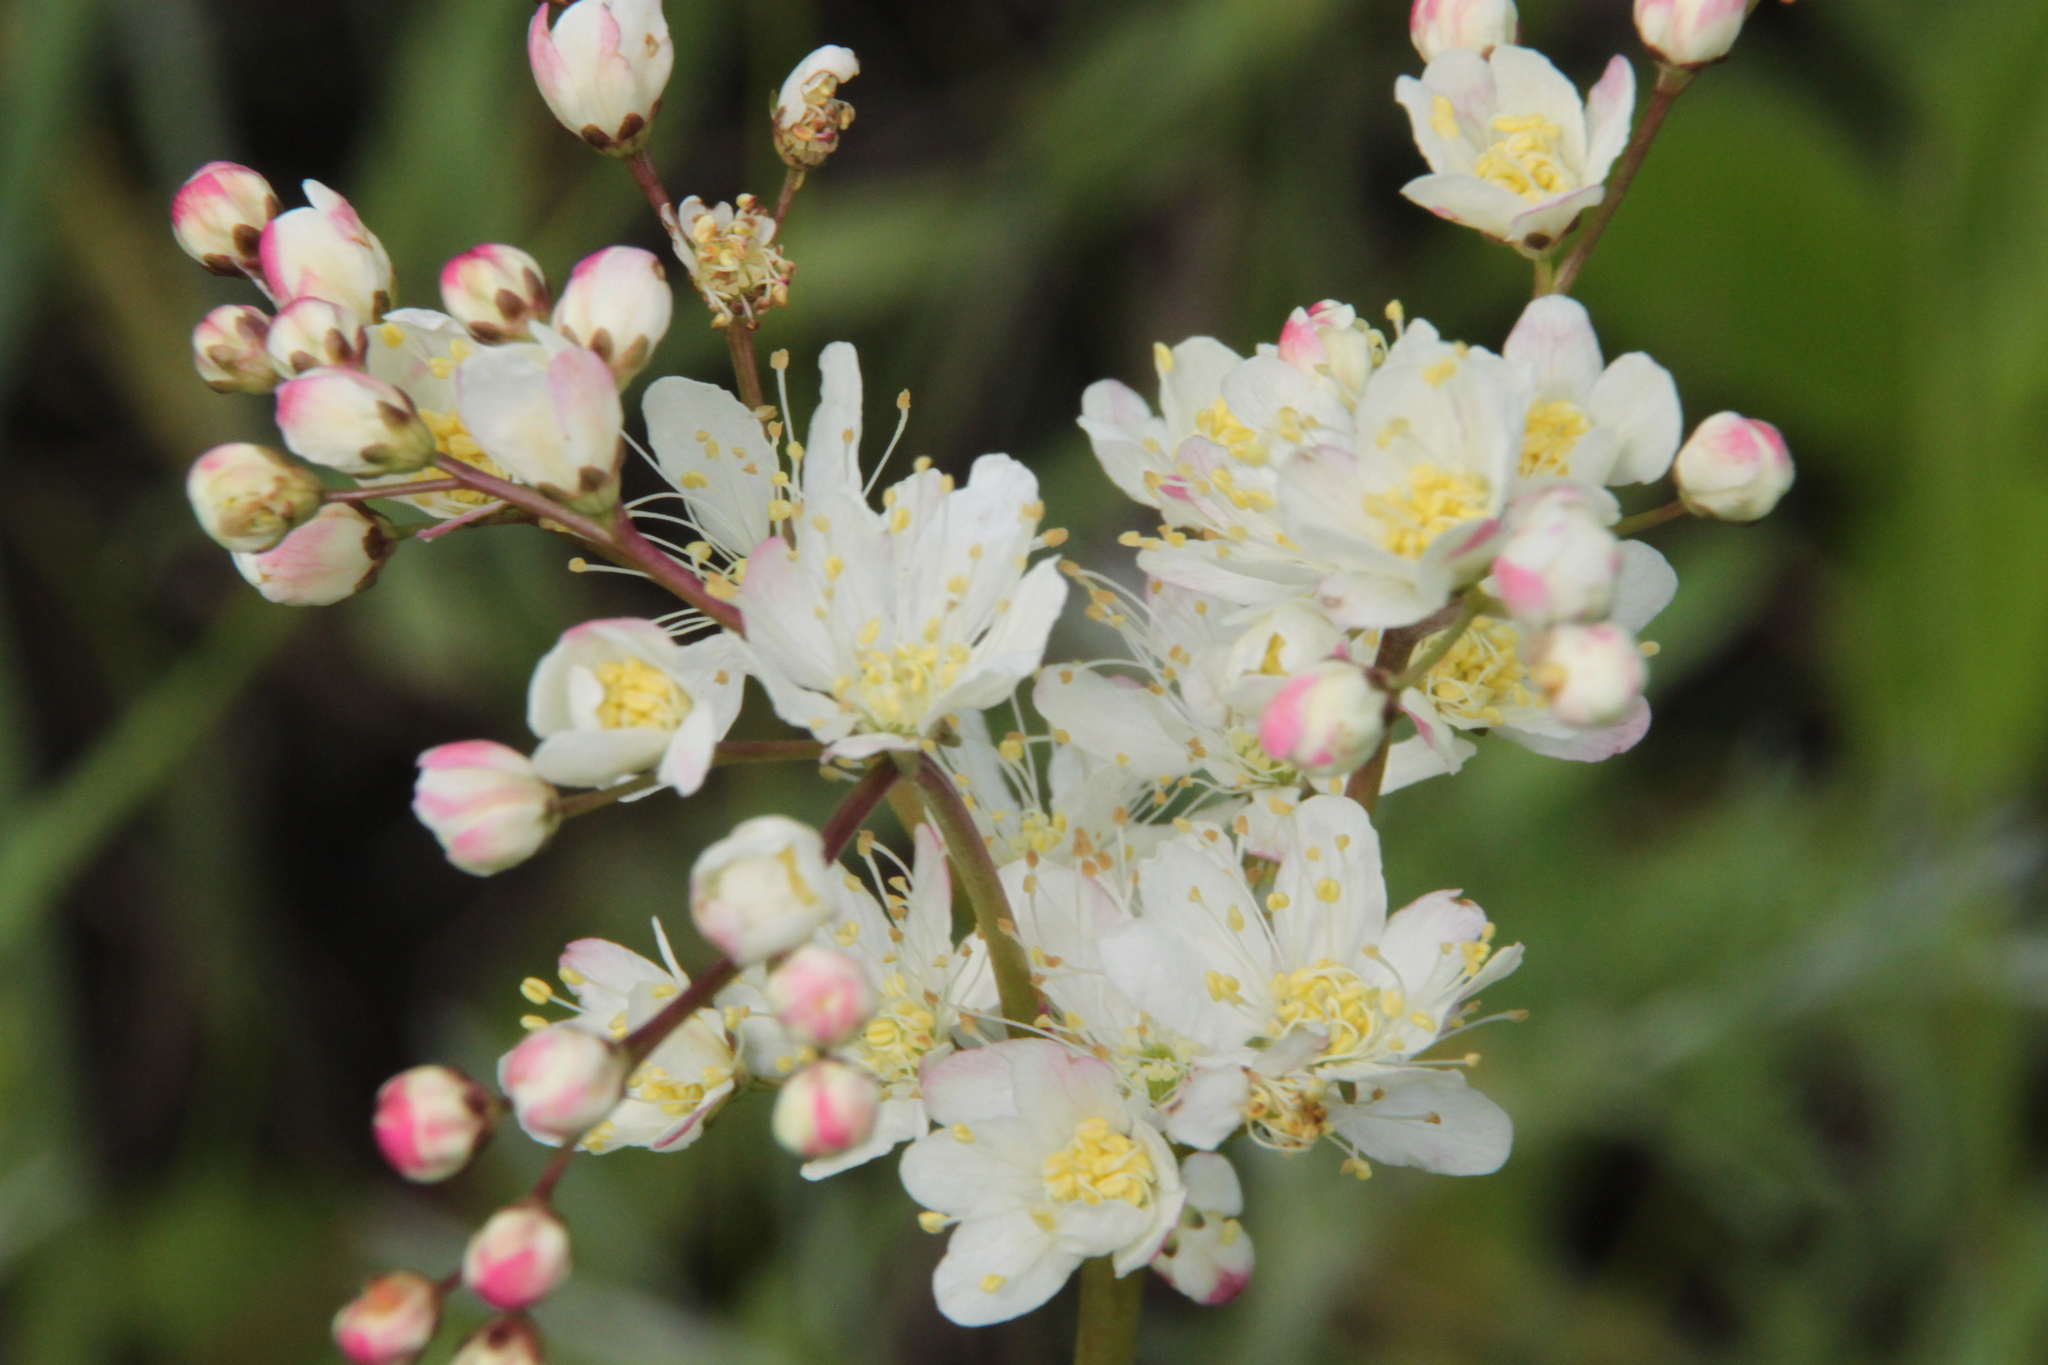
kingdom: Plantae
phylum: Tracheophyta
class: Magnoliopsida
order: Rosales
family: Rosaceae
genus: Filipendula
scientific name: Filipendula vulgaris
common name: Dropwort
